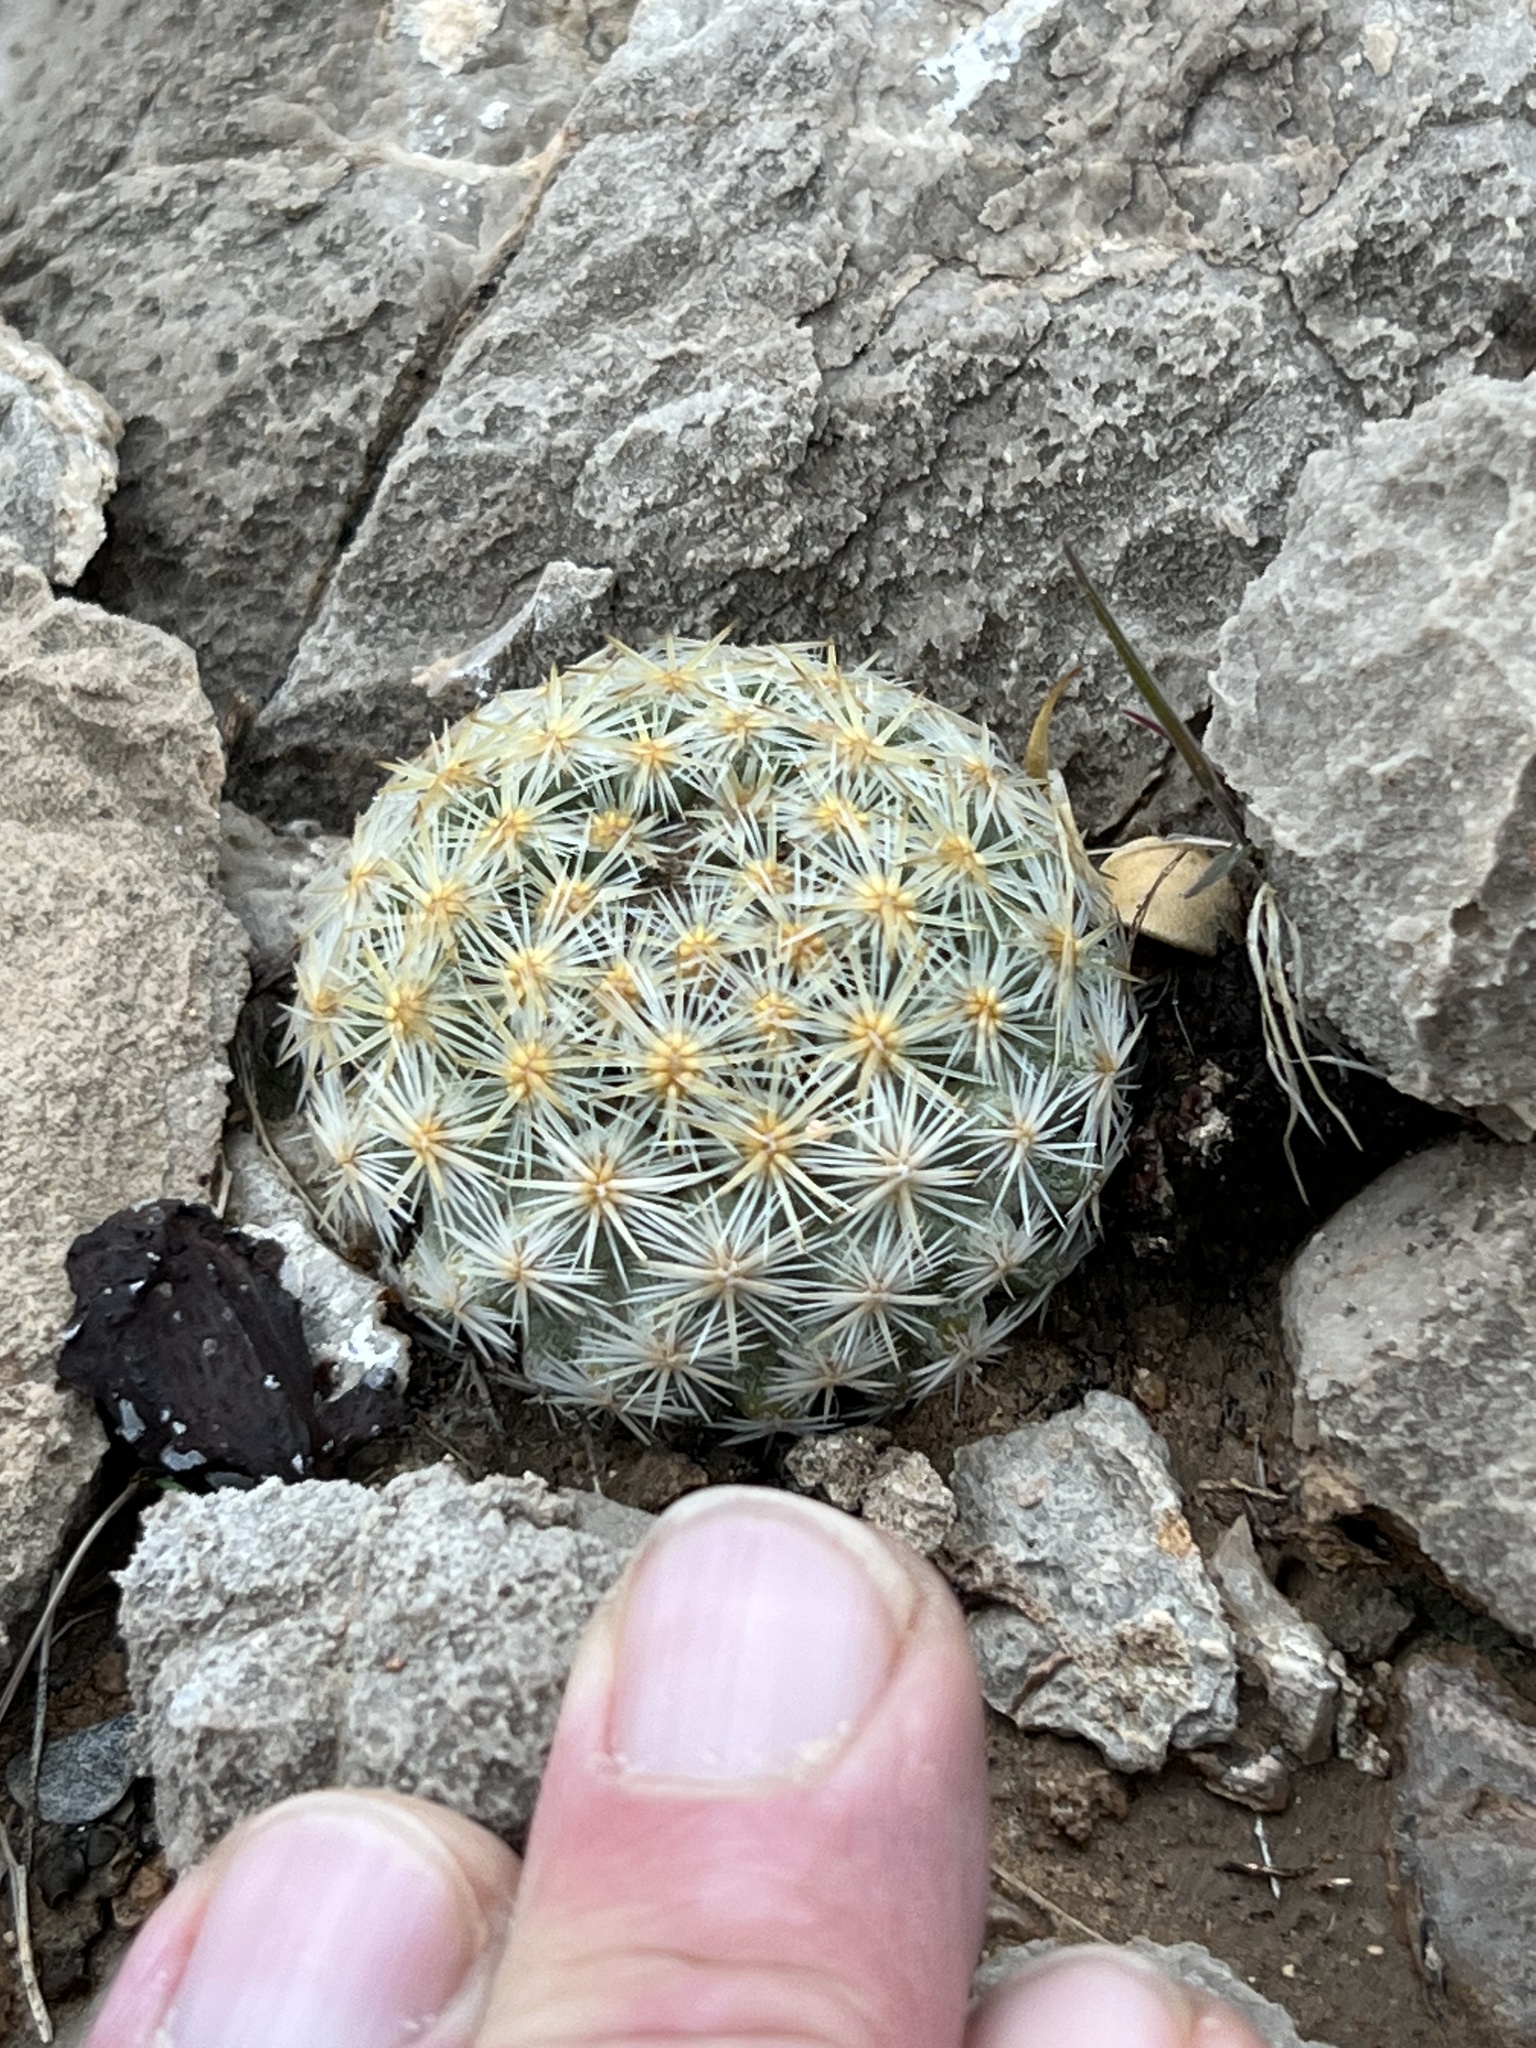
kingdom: Plantae
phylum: Tracheophyta
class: Magnoliopsida
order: Caryophyllales
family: Cactaceae
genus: Pelecyphora
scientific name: Pelecyphora dasyacantha
